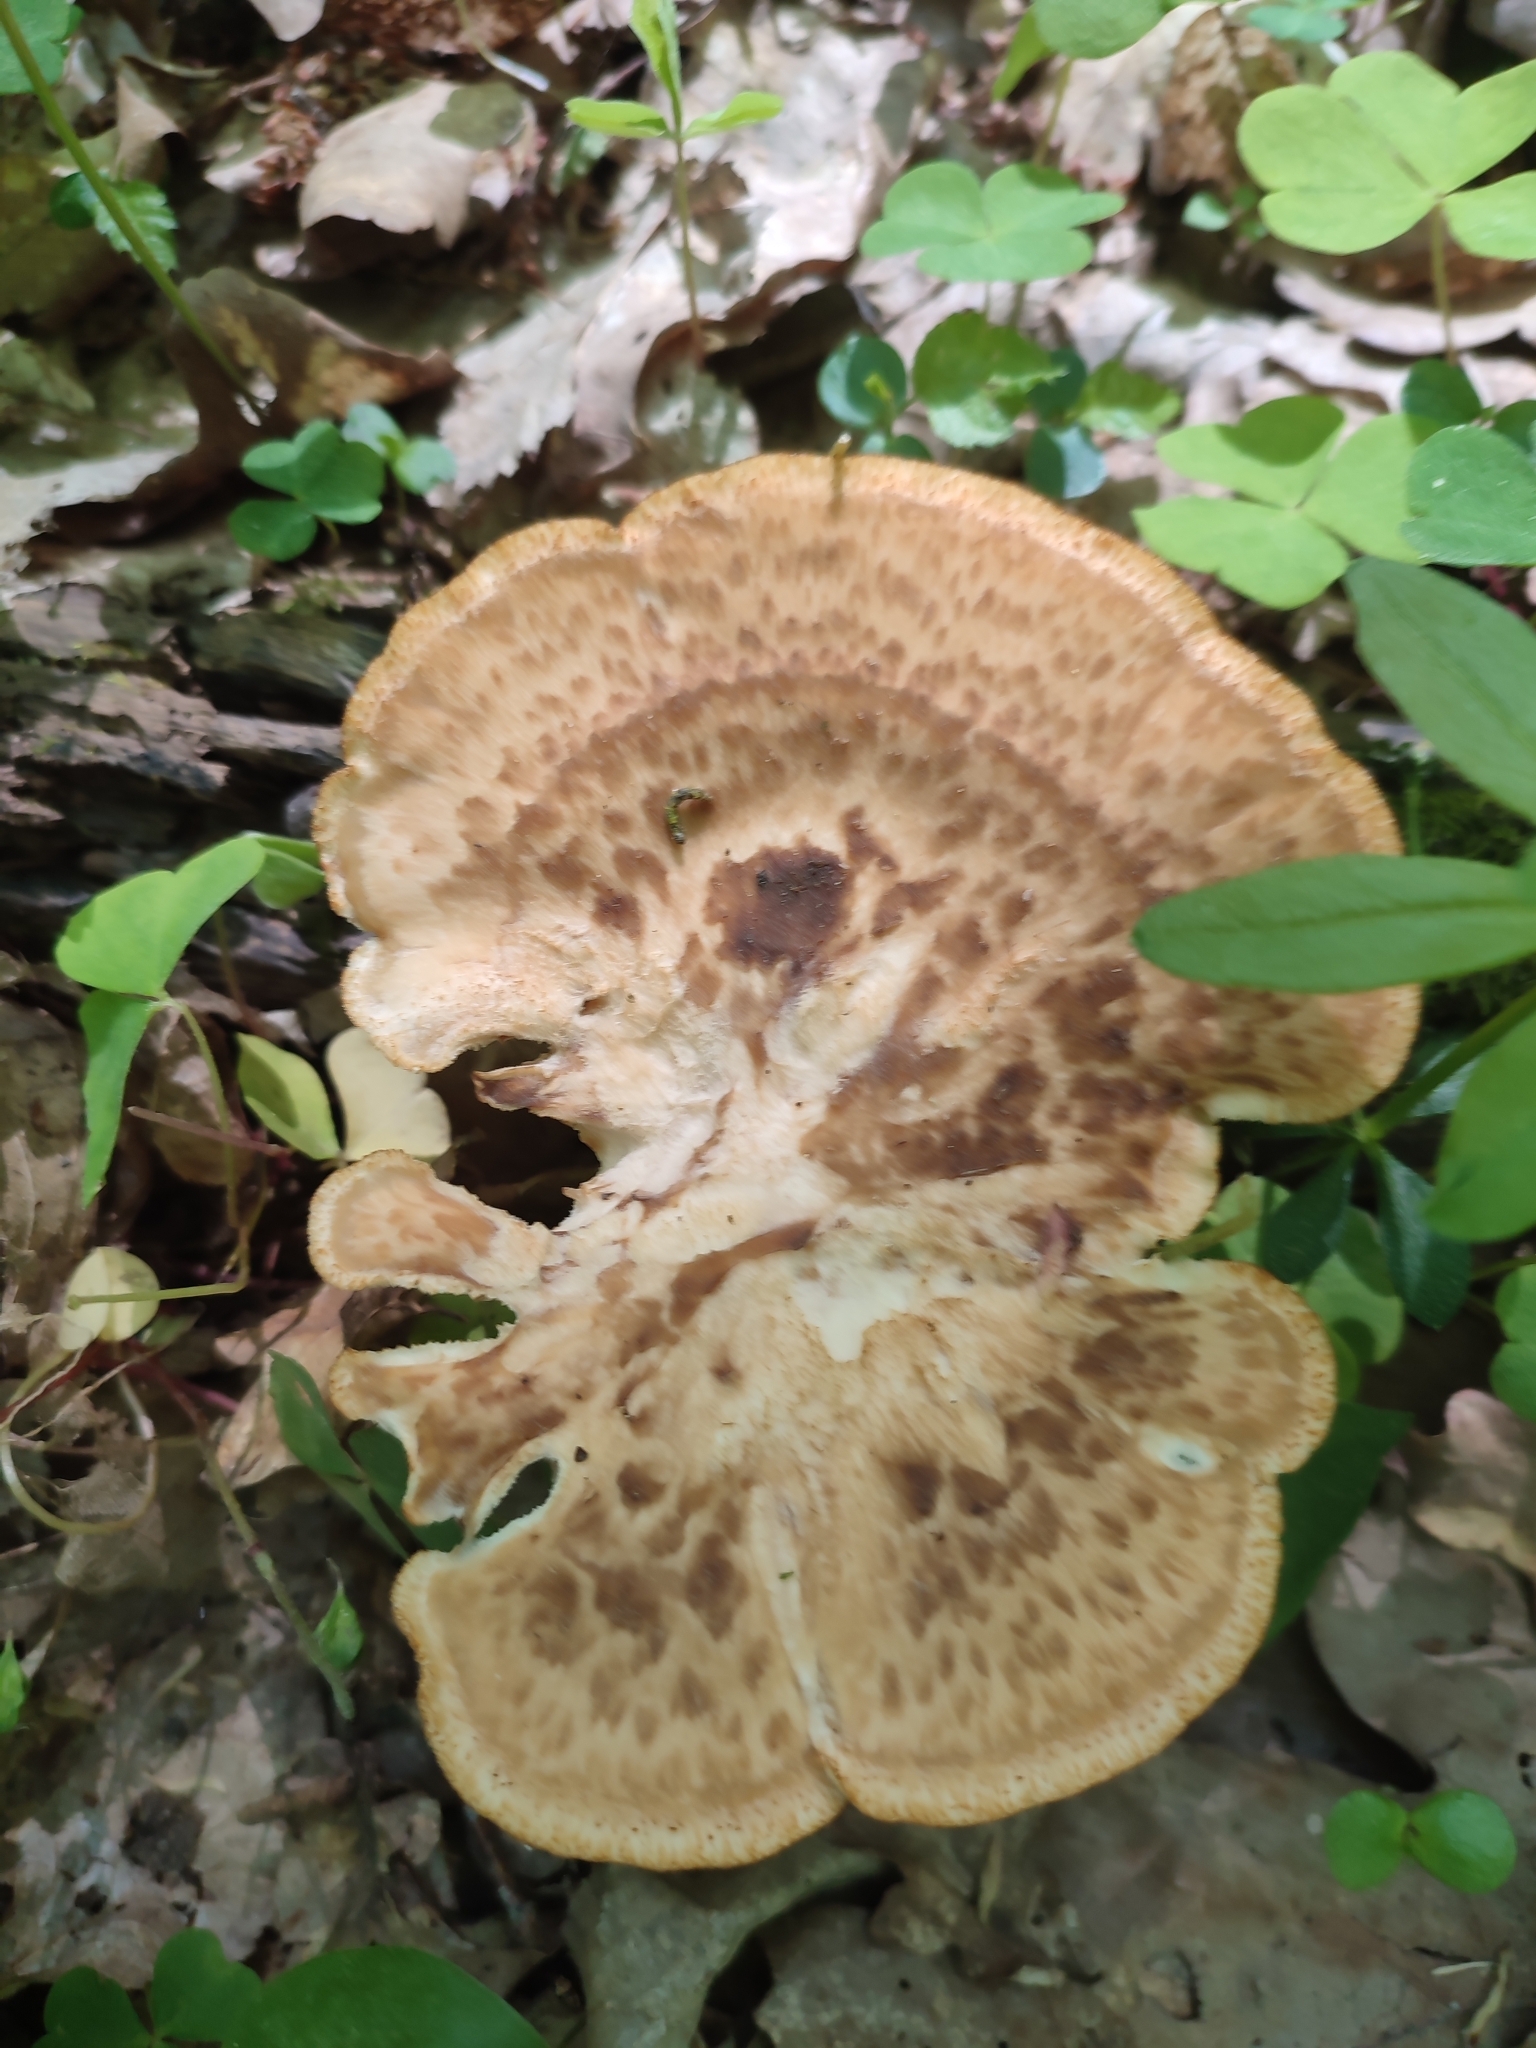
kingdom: Fungi
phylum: Basidiomycota
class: Agaricomycetes
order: Polyporales
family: Polyporaceae
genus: Cerioporus
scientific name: Cerioporus squamosus
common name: Dryad's saddle
